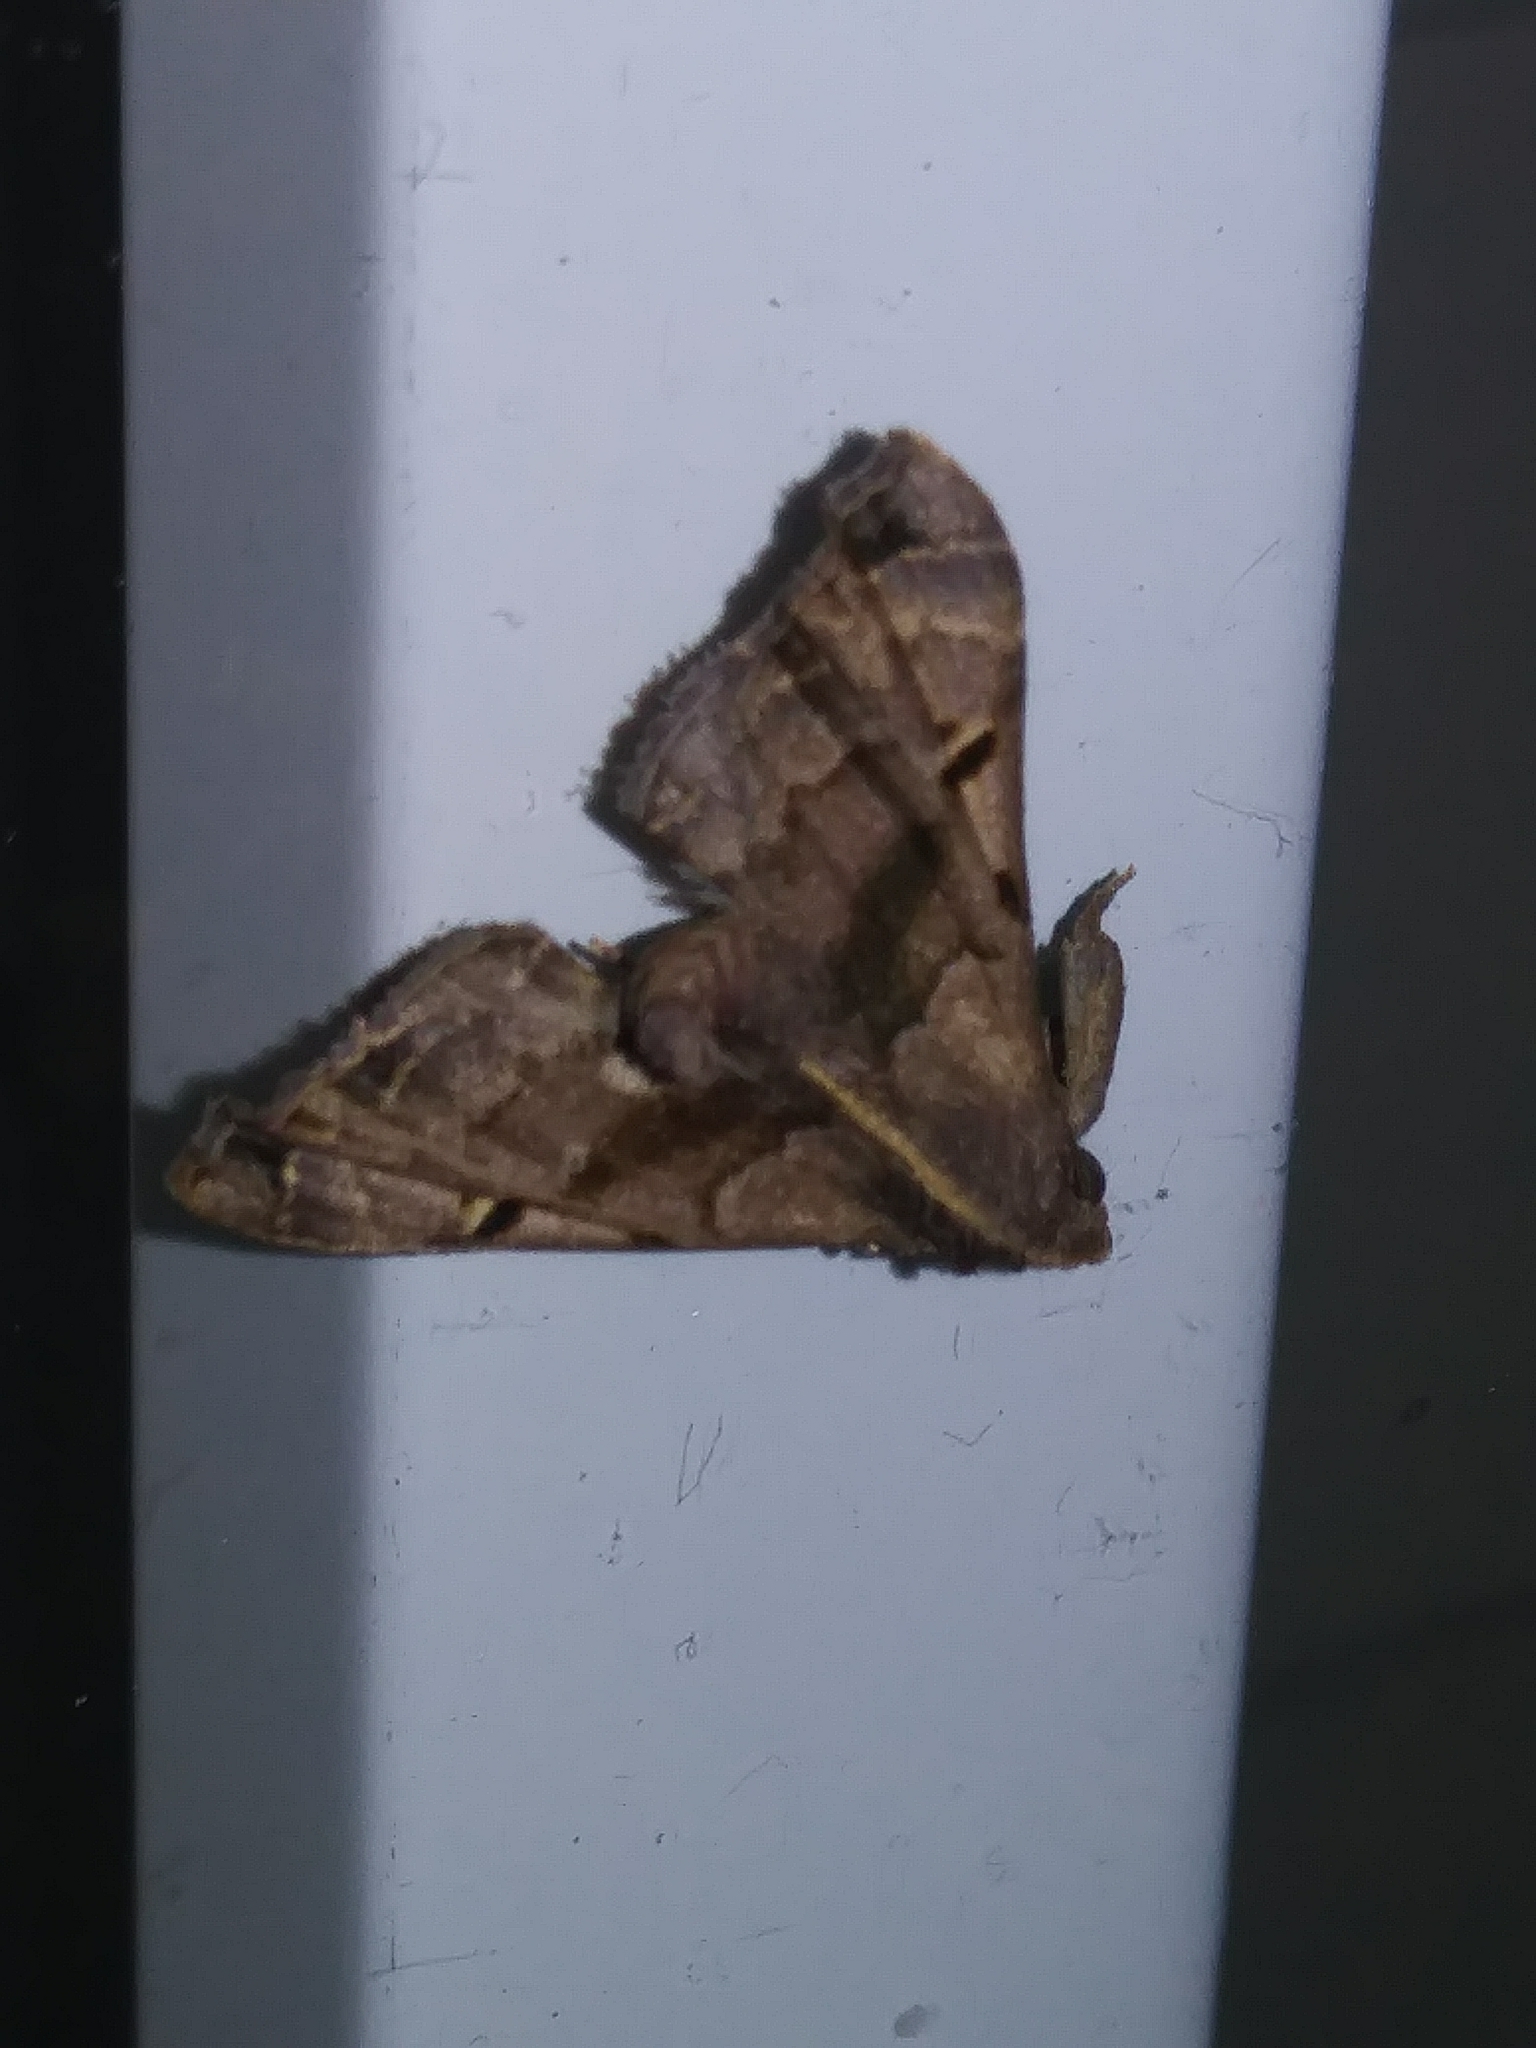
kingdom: Animalia
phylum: Arthropoda
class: Insecta
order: Lepidoptera
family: Erebidae
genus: Palthis
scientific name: Palthis asopialis
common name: Faint-spotted palthis moth
